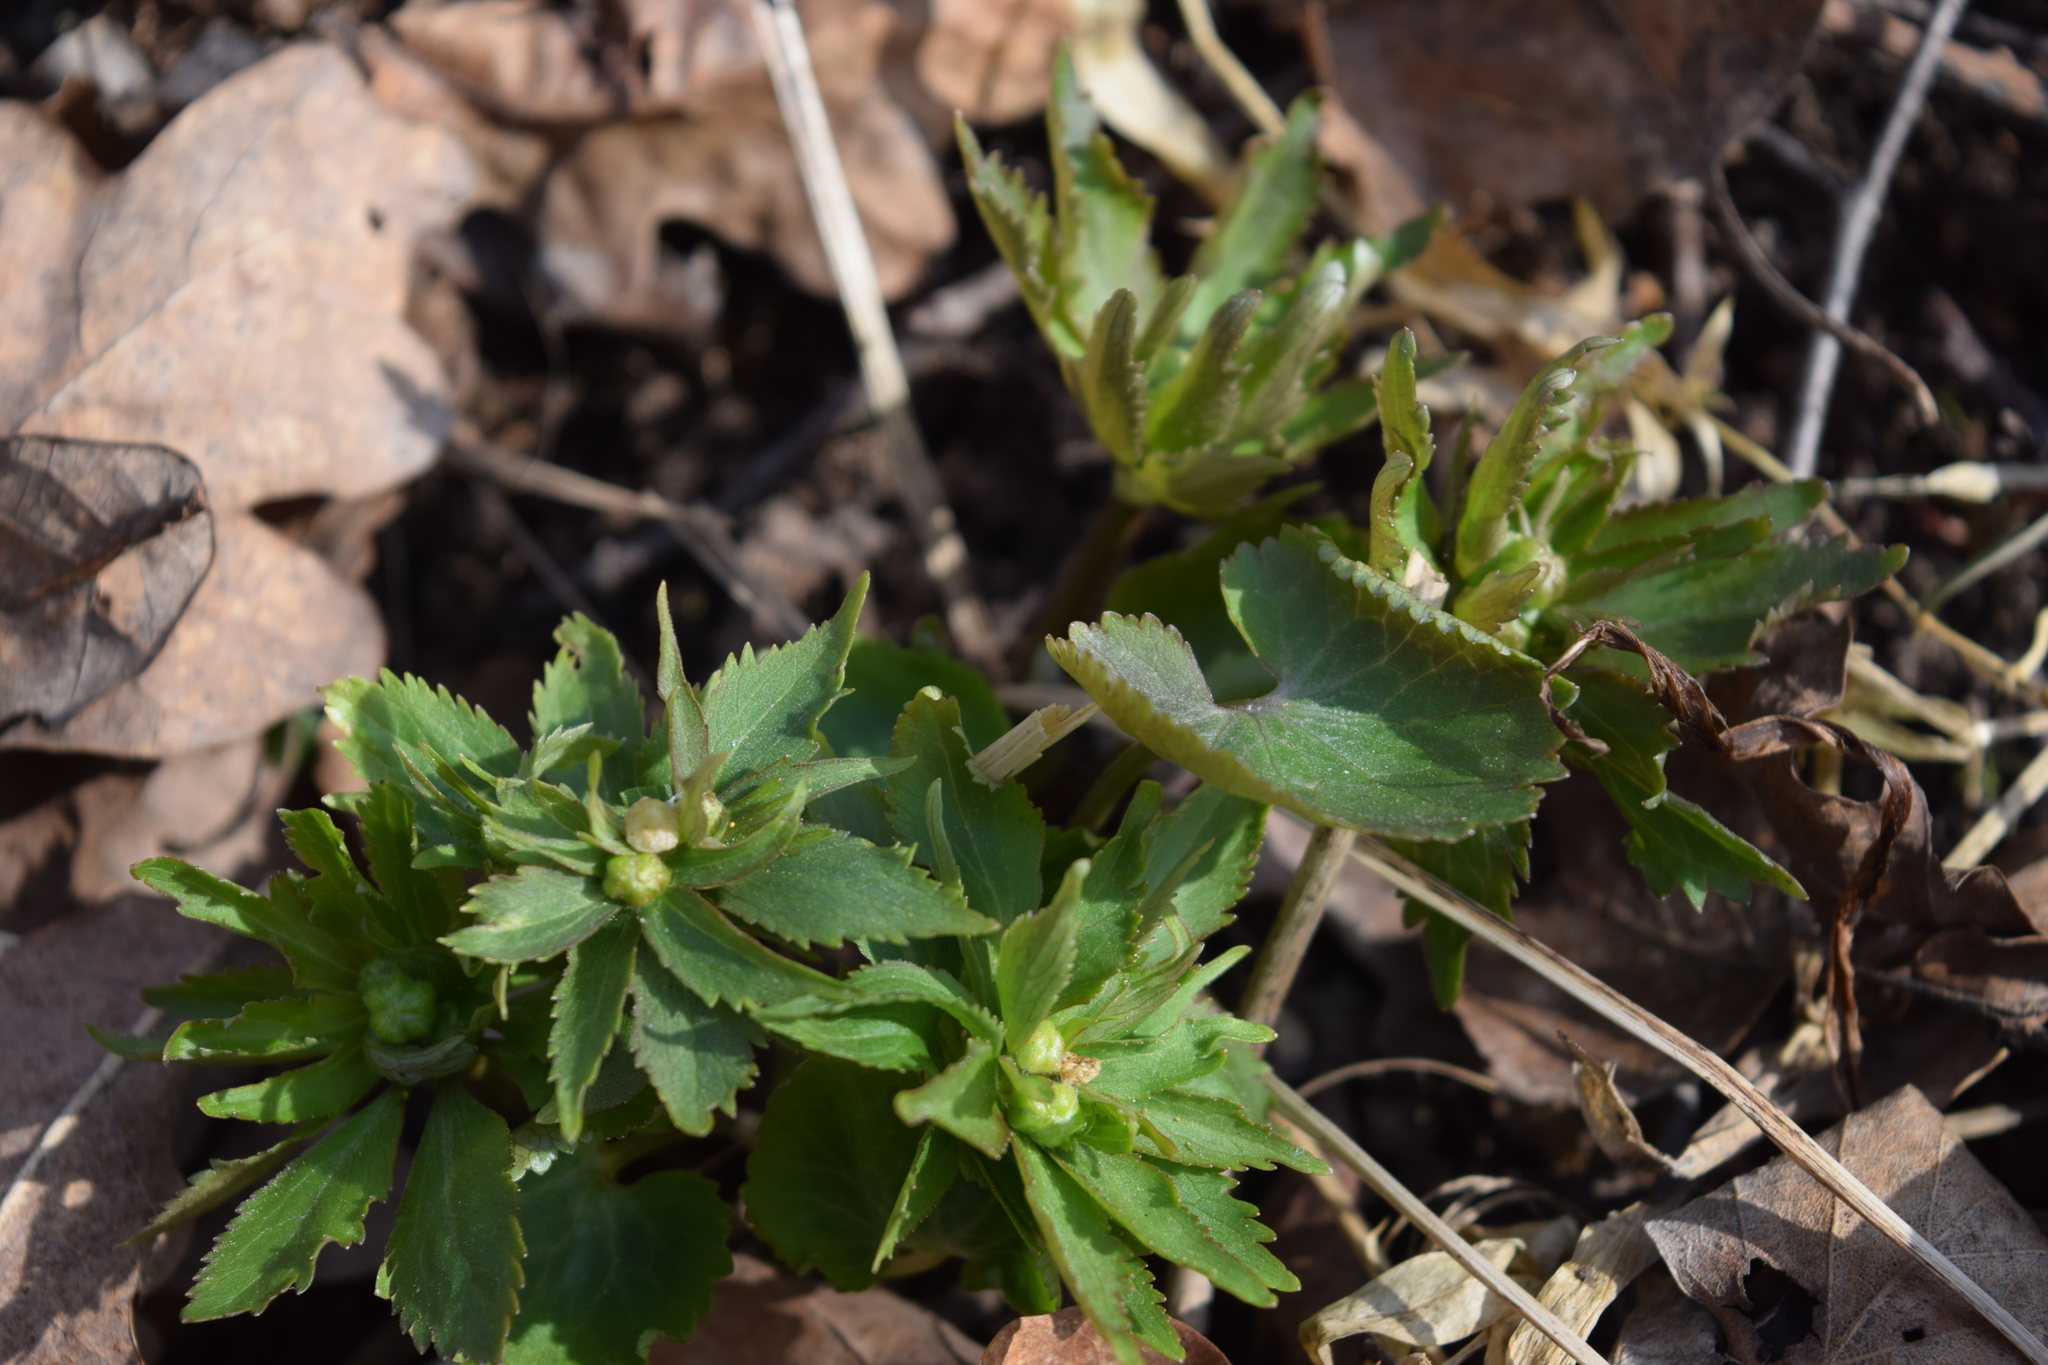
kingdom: Plantae
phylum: Tracheophyta
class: Magnoliopsida
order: Ranunculales
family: Ranunculaceae
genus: Ranunculus
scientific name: Ranunculus cassubicus
